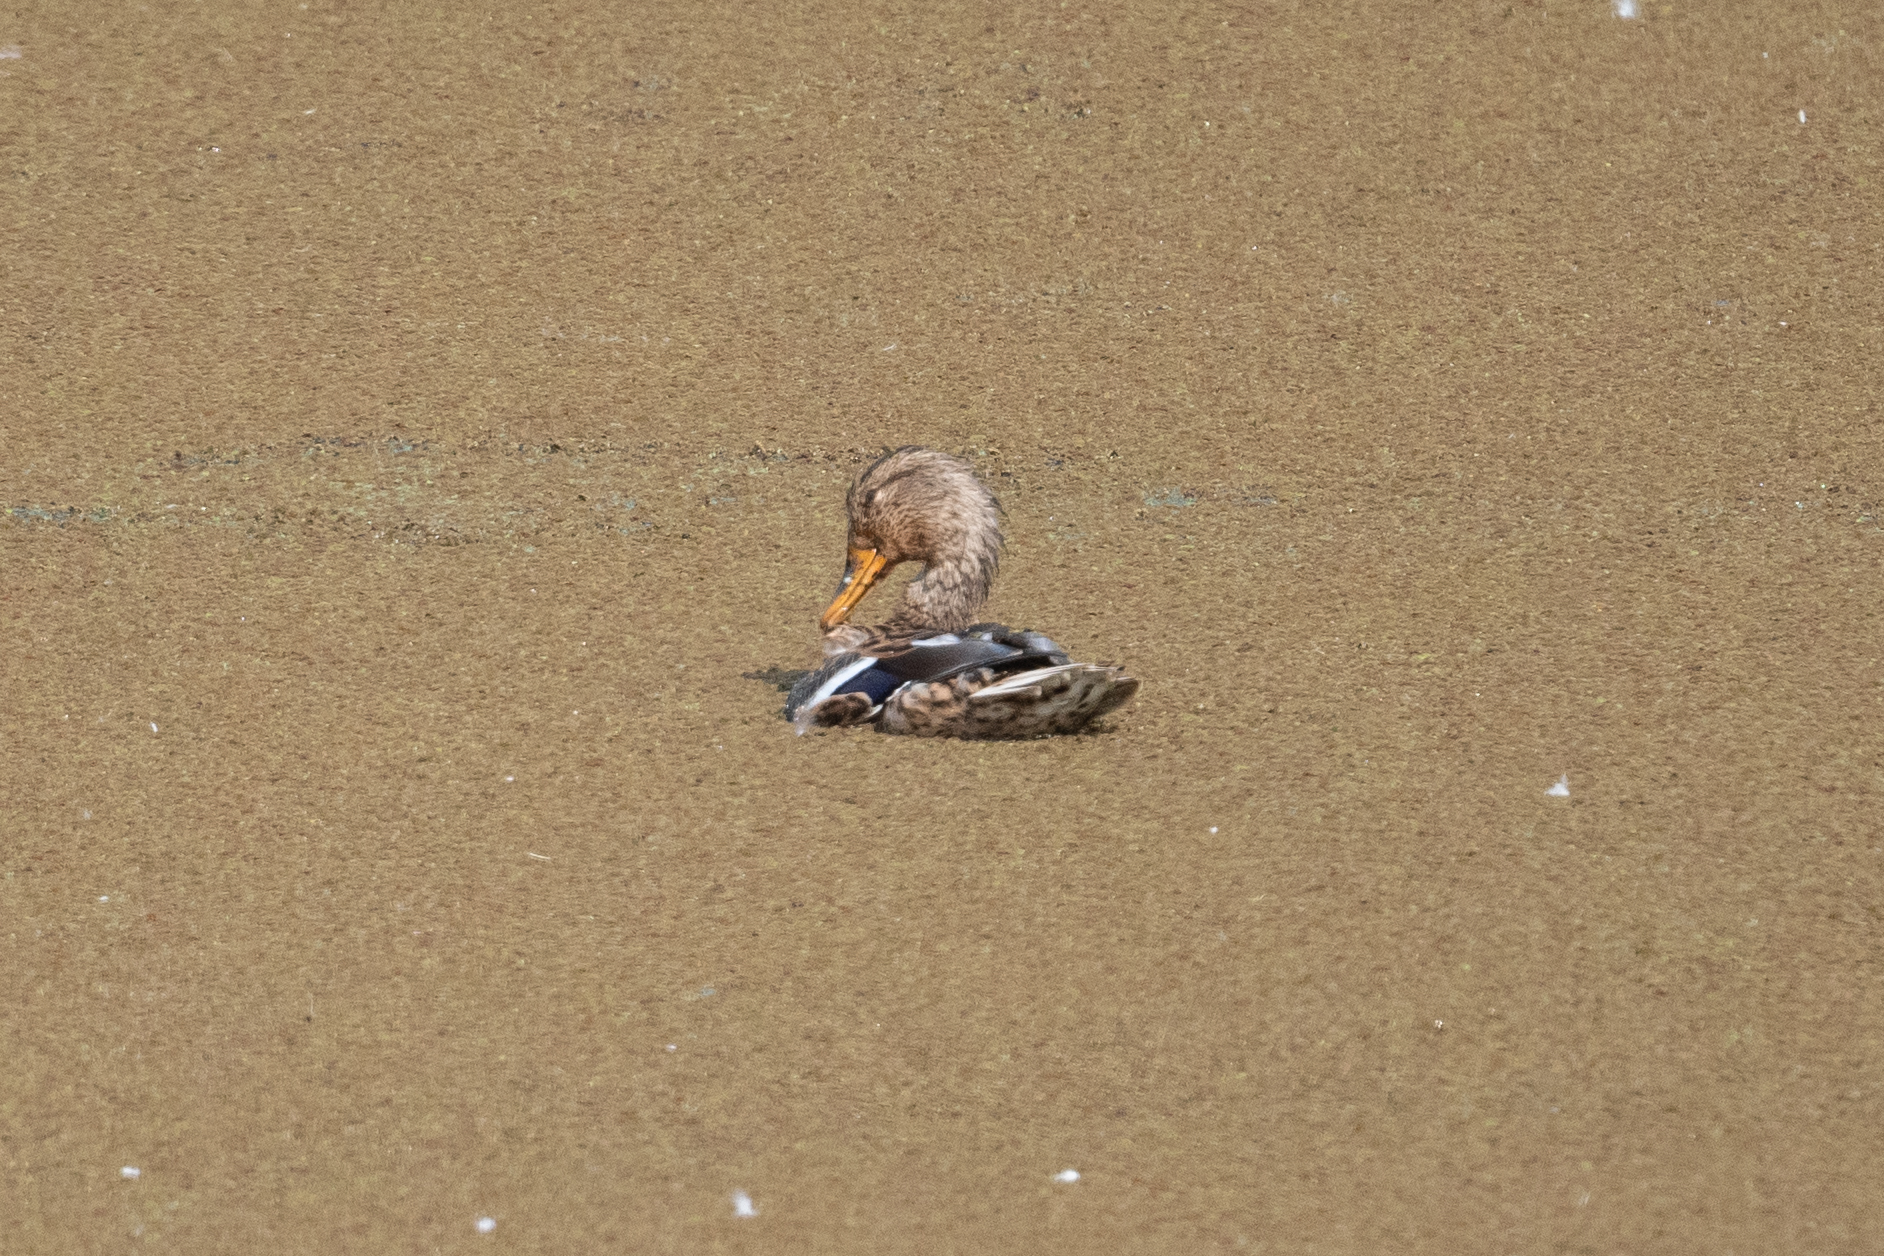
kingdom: Animalia
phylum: Chordata
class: Aves
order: Anseriformes
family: Anatidae
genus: Anas
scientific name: Anas platyrhynchos
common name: Mallard
